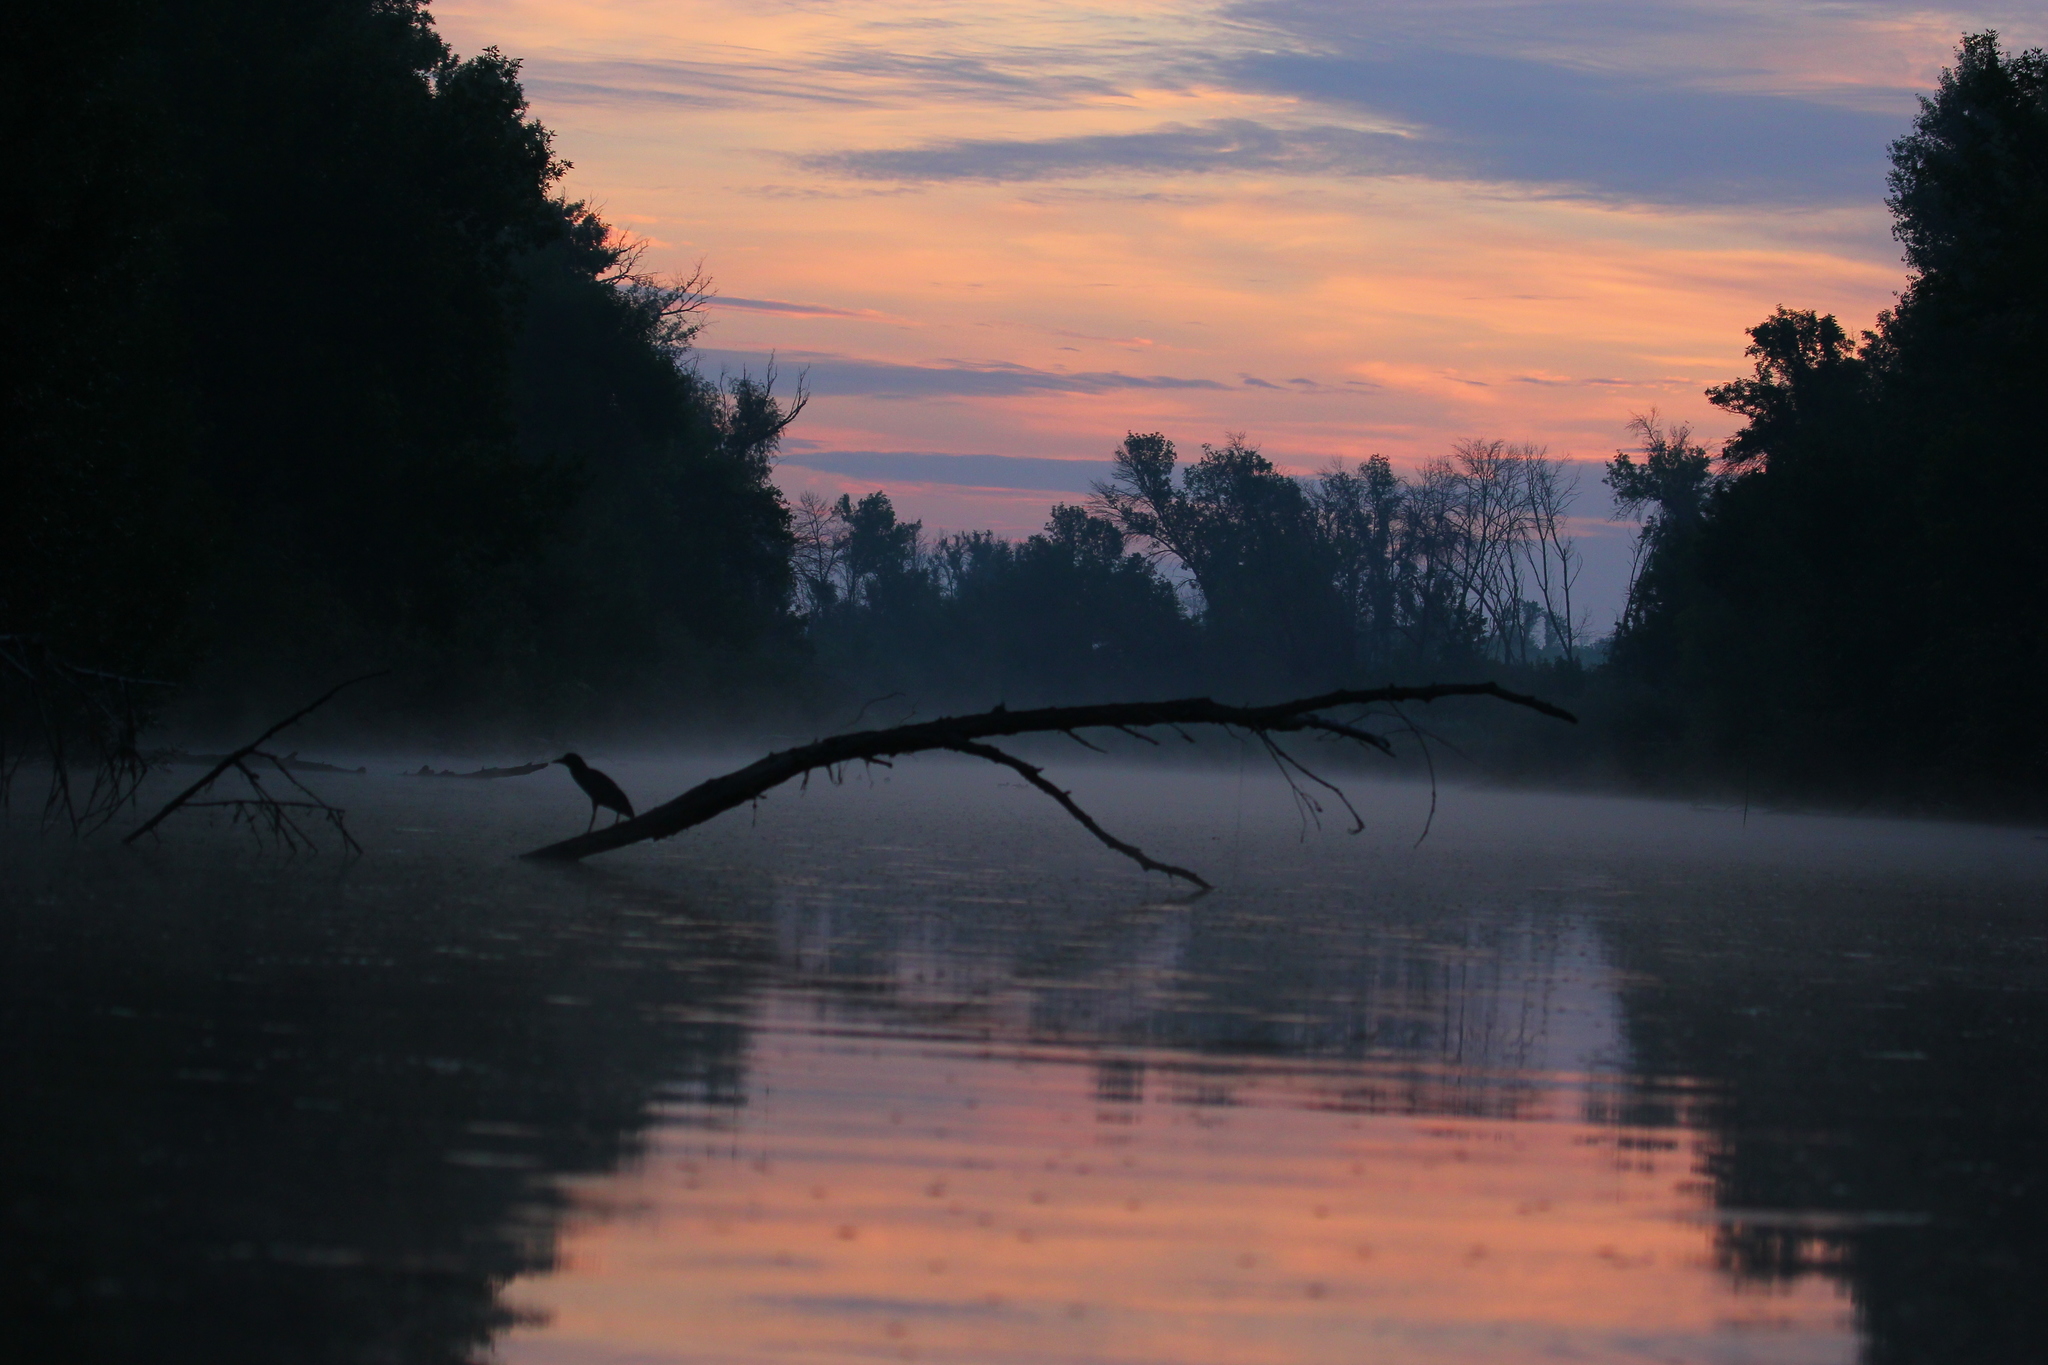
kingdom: Animalia
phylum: Chordata
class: Aves
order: Pelecaniformes
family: Ardeidae
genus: Nycticorax
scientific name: Nycticorax nycticorax
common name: Black-crowned night heron
